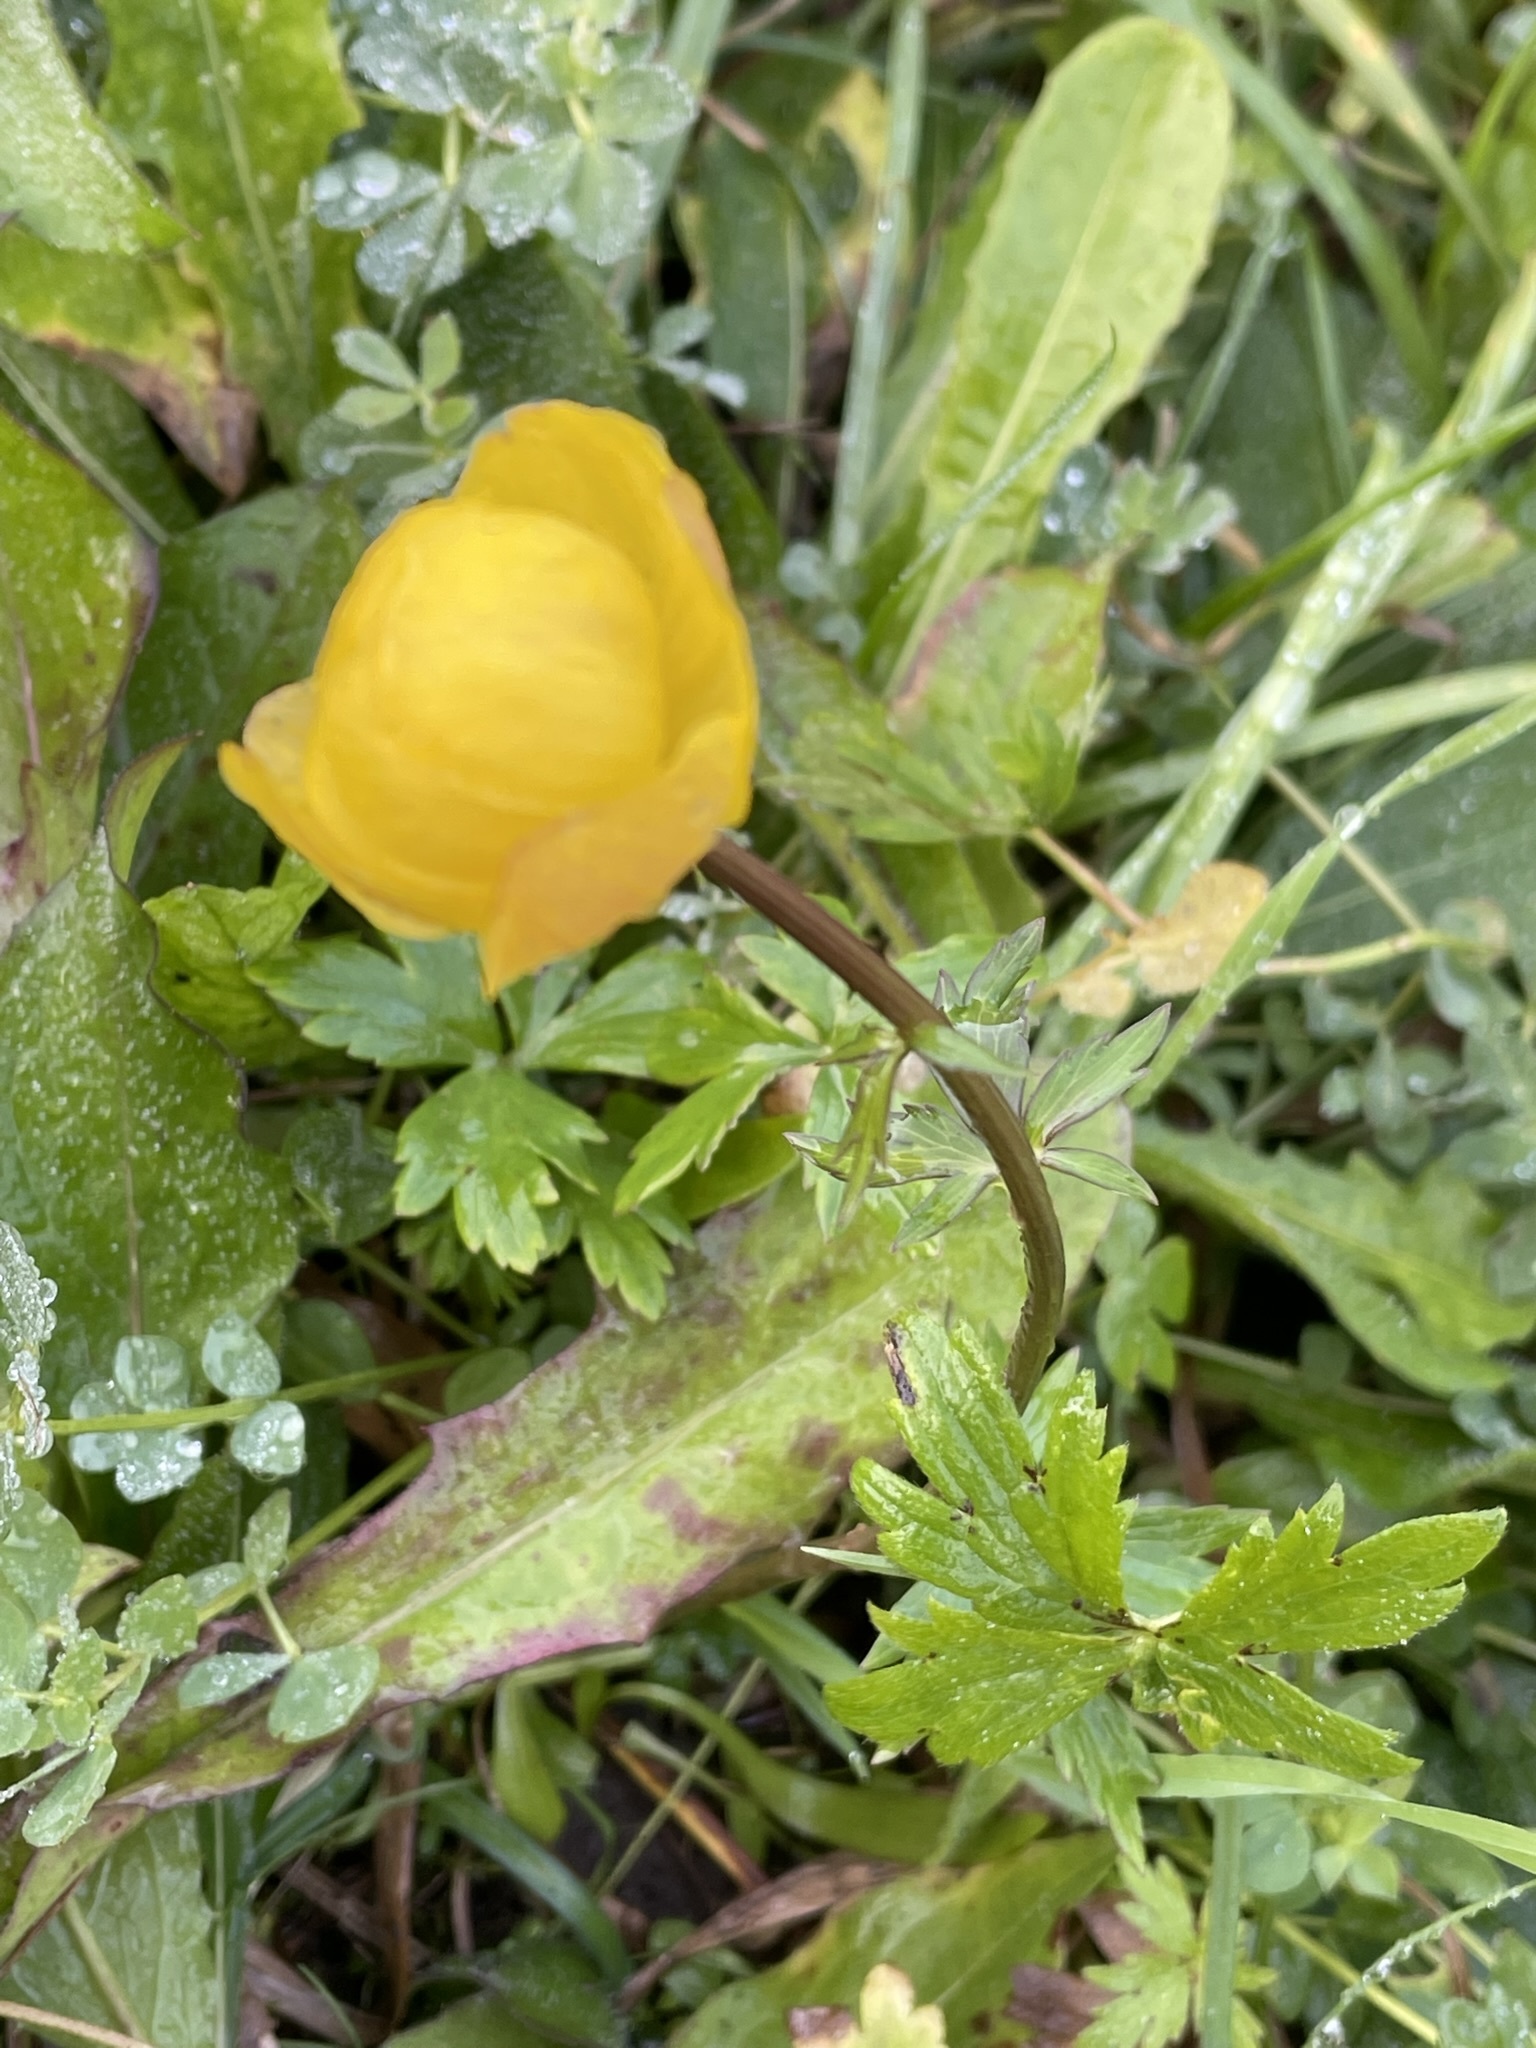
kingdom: Plantae
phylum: Tracheophyta
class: Magnoliopsida
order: Ranunculales
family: Ranunculaceae
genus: Trollius
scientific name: Trollius europaeus
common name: European globeflower
